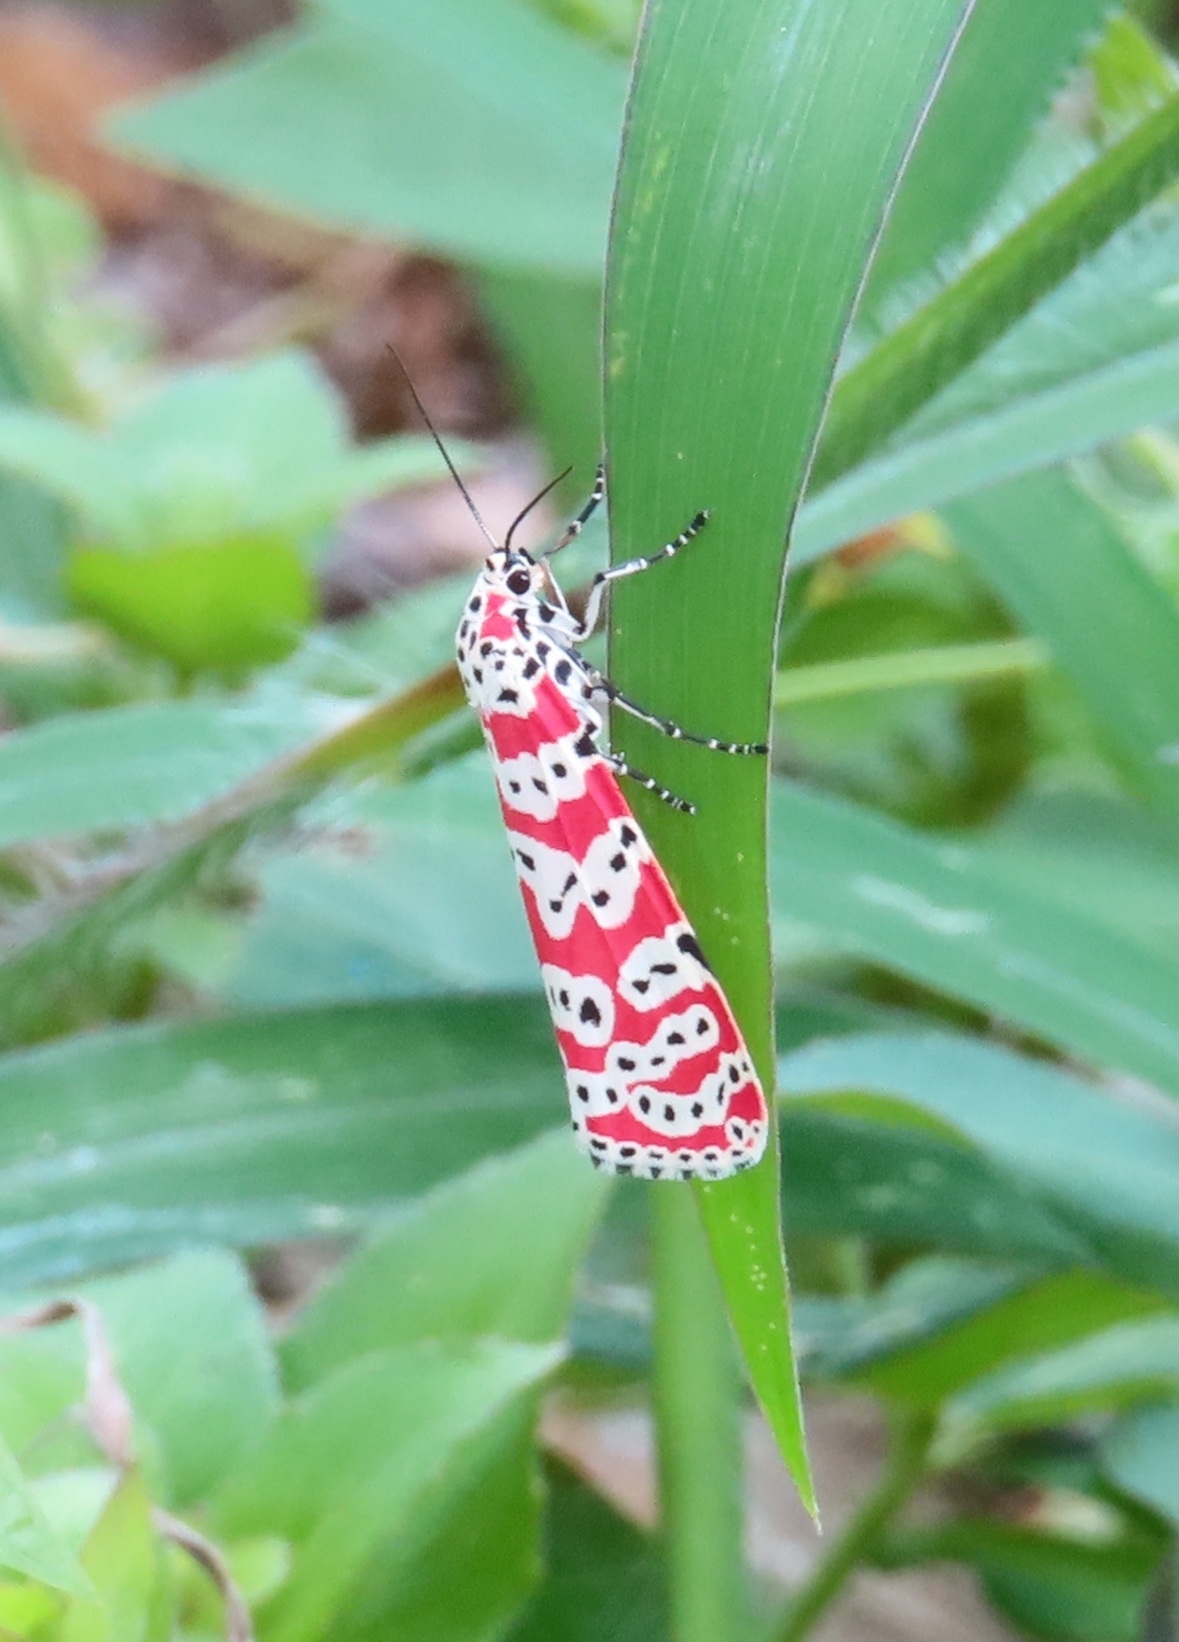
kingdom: Animalia
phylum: Arthropoda
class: Insecta
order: Lepidoptera
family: Erebidae
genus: Utetheisa
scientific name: Utetheisa ornatrix
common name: Beautiful utetheisa
